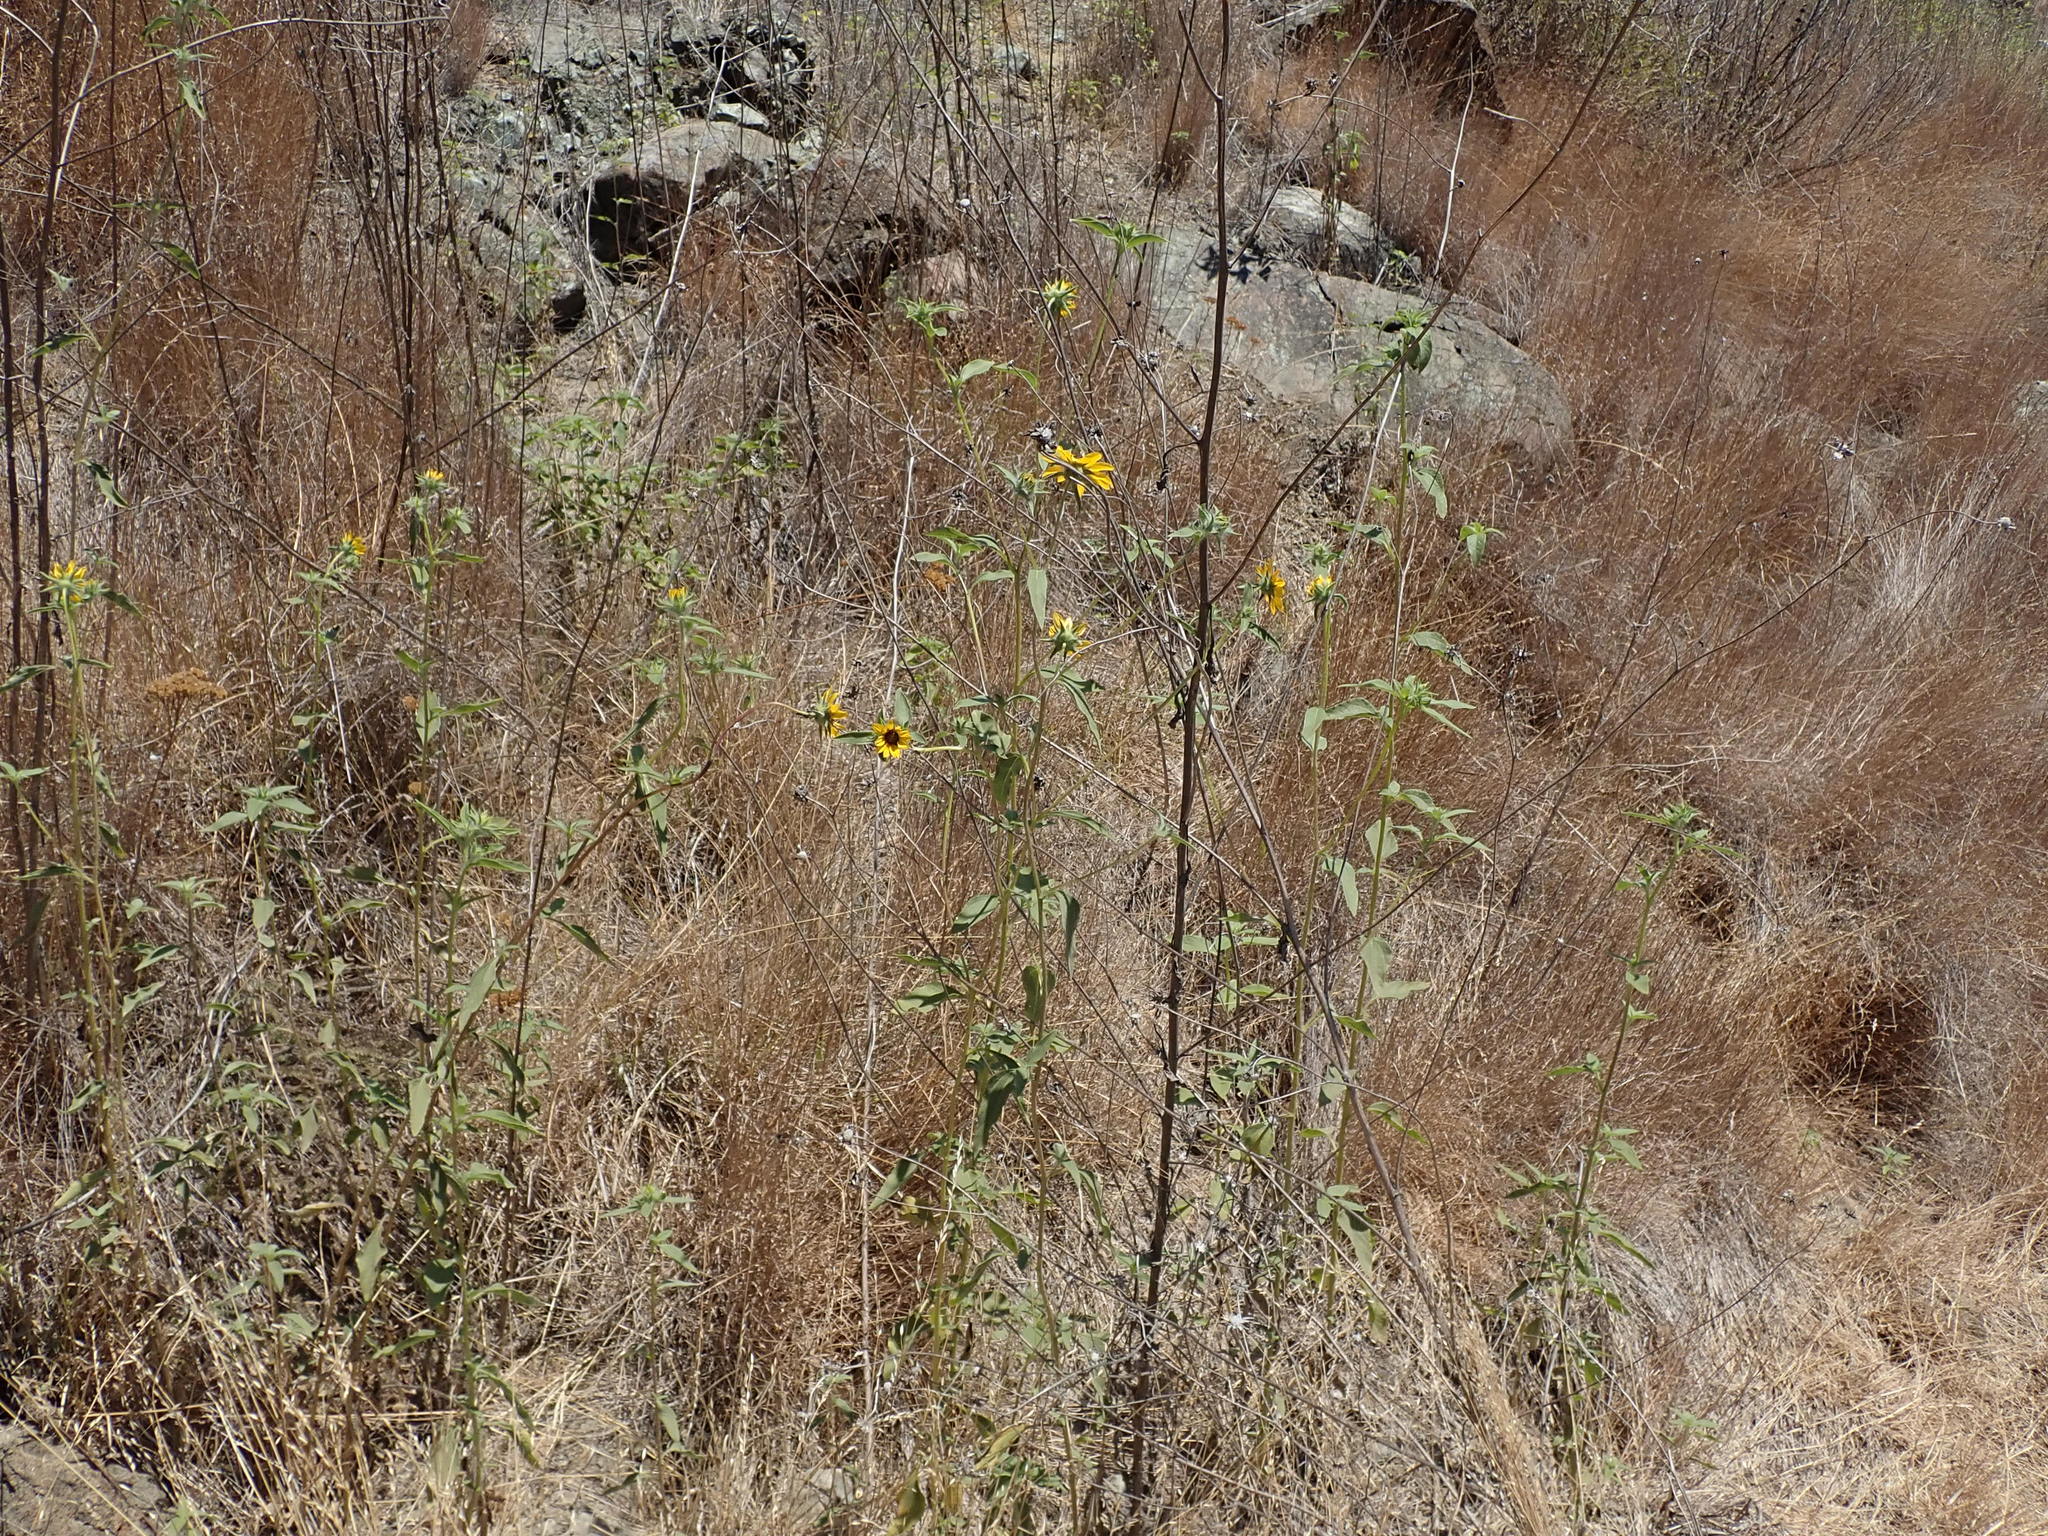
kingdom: Plantae
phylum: Tracheophyta
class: Magnoliopsida
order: Asterales
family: Asteraceae
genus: Helianthus
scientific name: Helianthus exilis
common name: Serpentine sunflower
